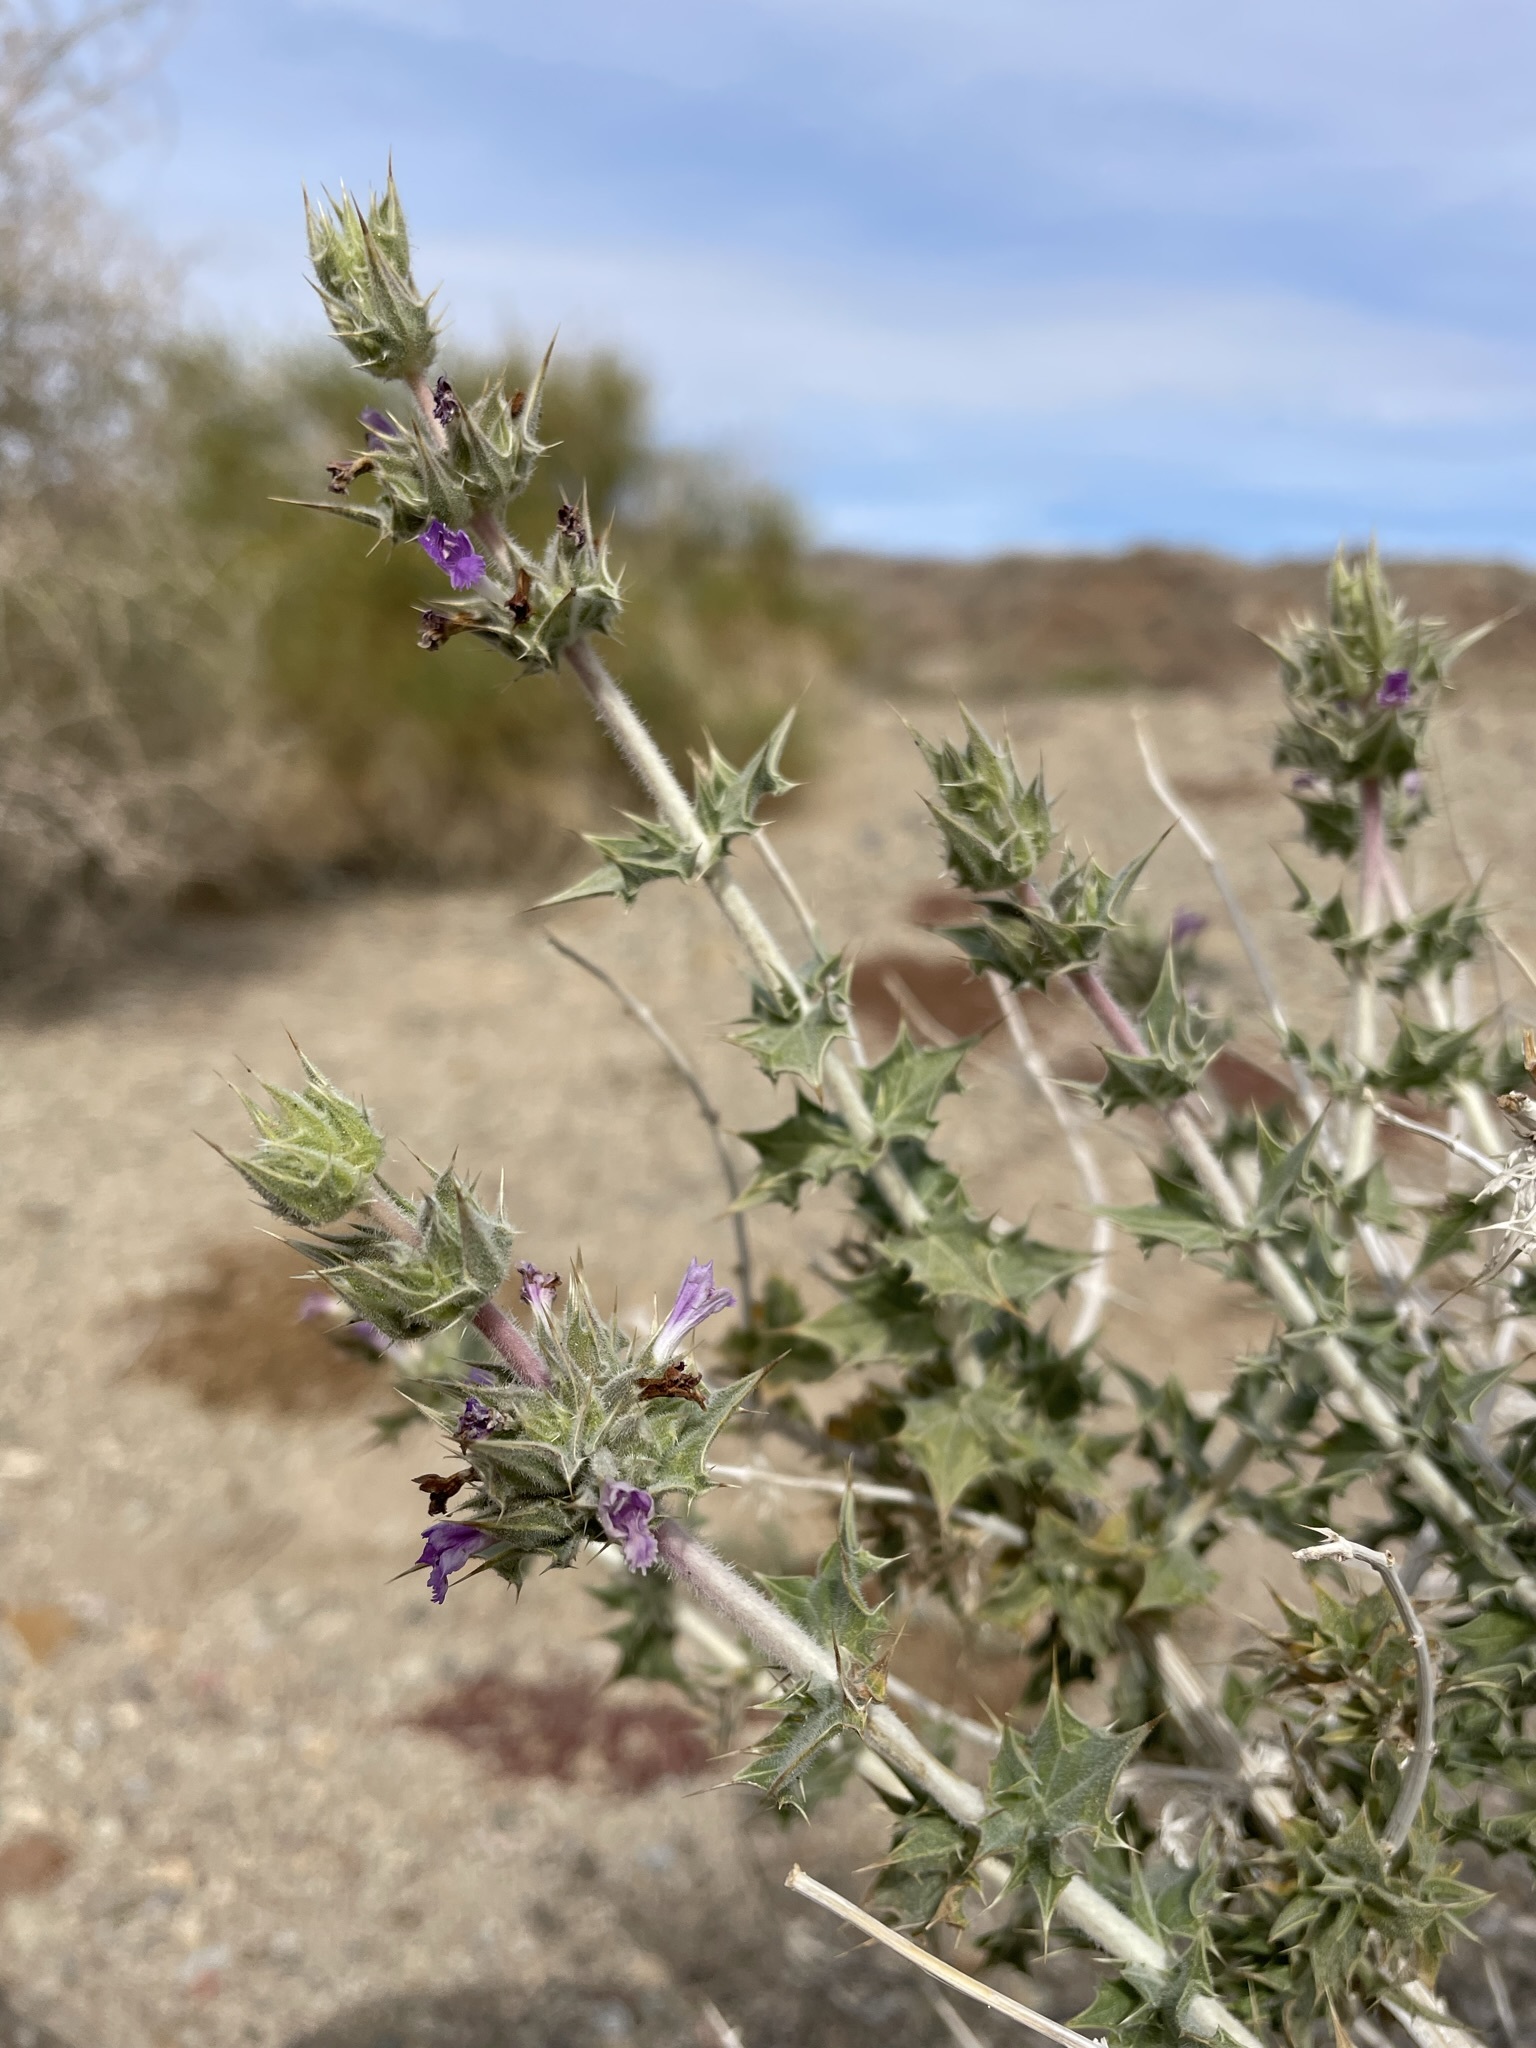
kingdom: Plantae
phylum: Tracheophyta
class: Magnoliopsida
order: Lamiales
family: Lamiaceae
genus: Salvia
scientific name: Salvia greatae
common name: Orocopia sage
